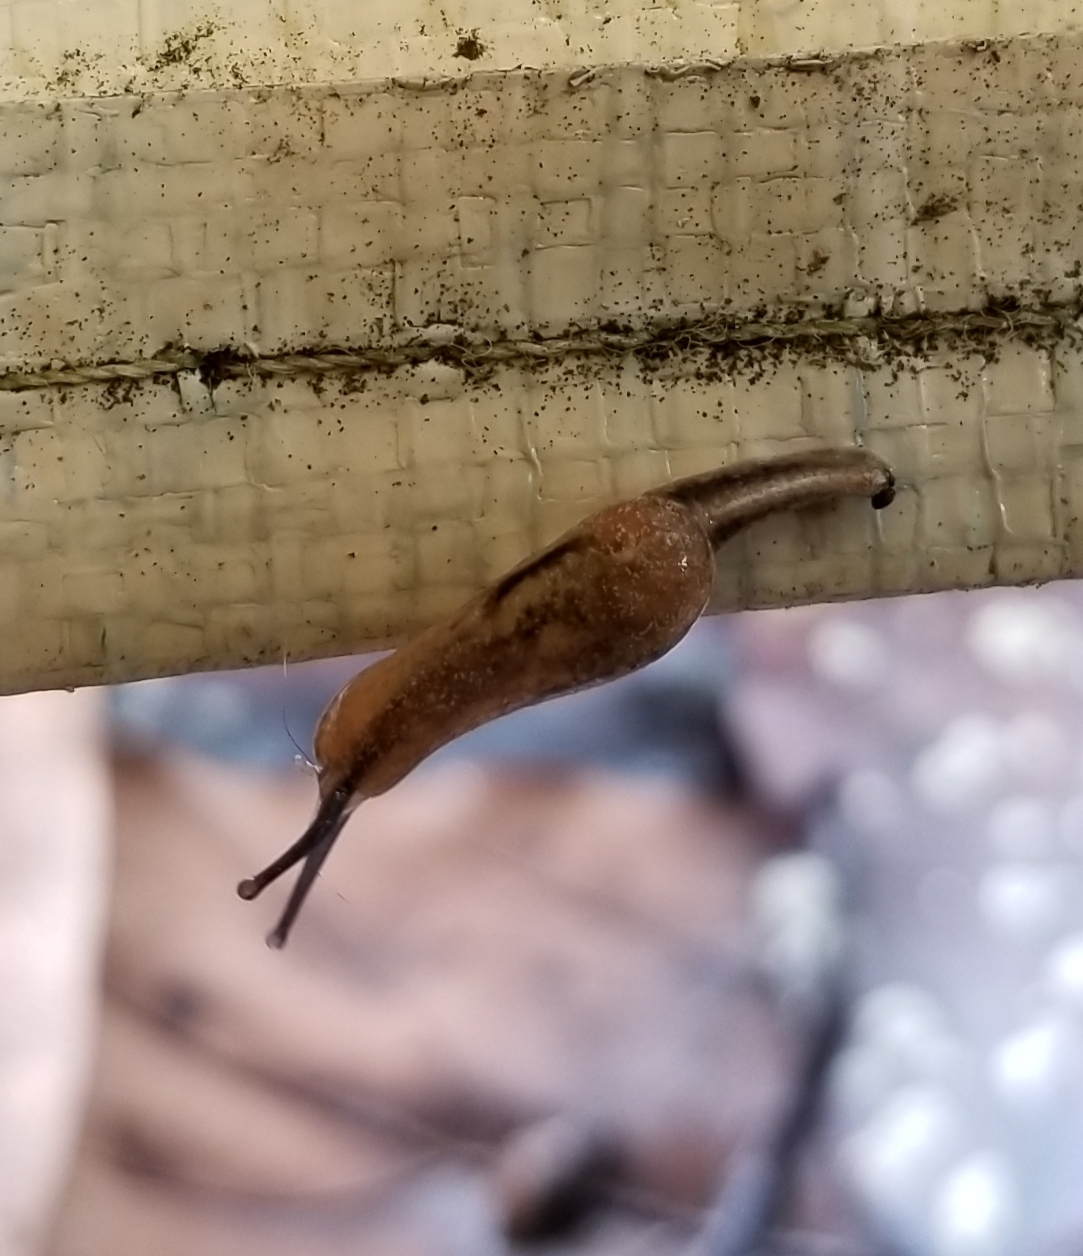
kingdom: Animalia
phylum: Mollusca
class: Gastropoda
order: Stylommatophora
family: Ariophantidae
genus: Parmarion
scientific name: Parmarion martensi
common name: Semi-slug
